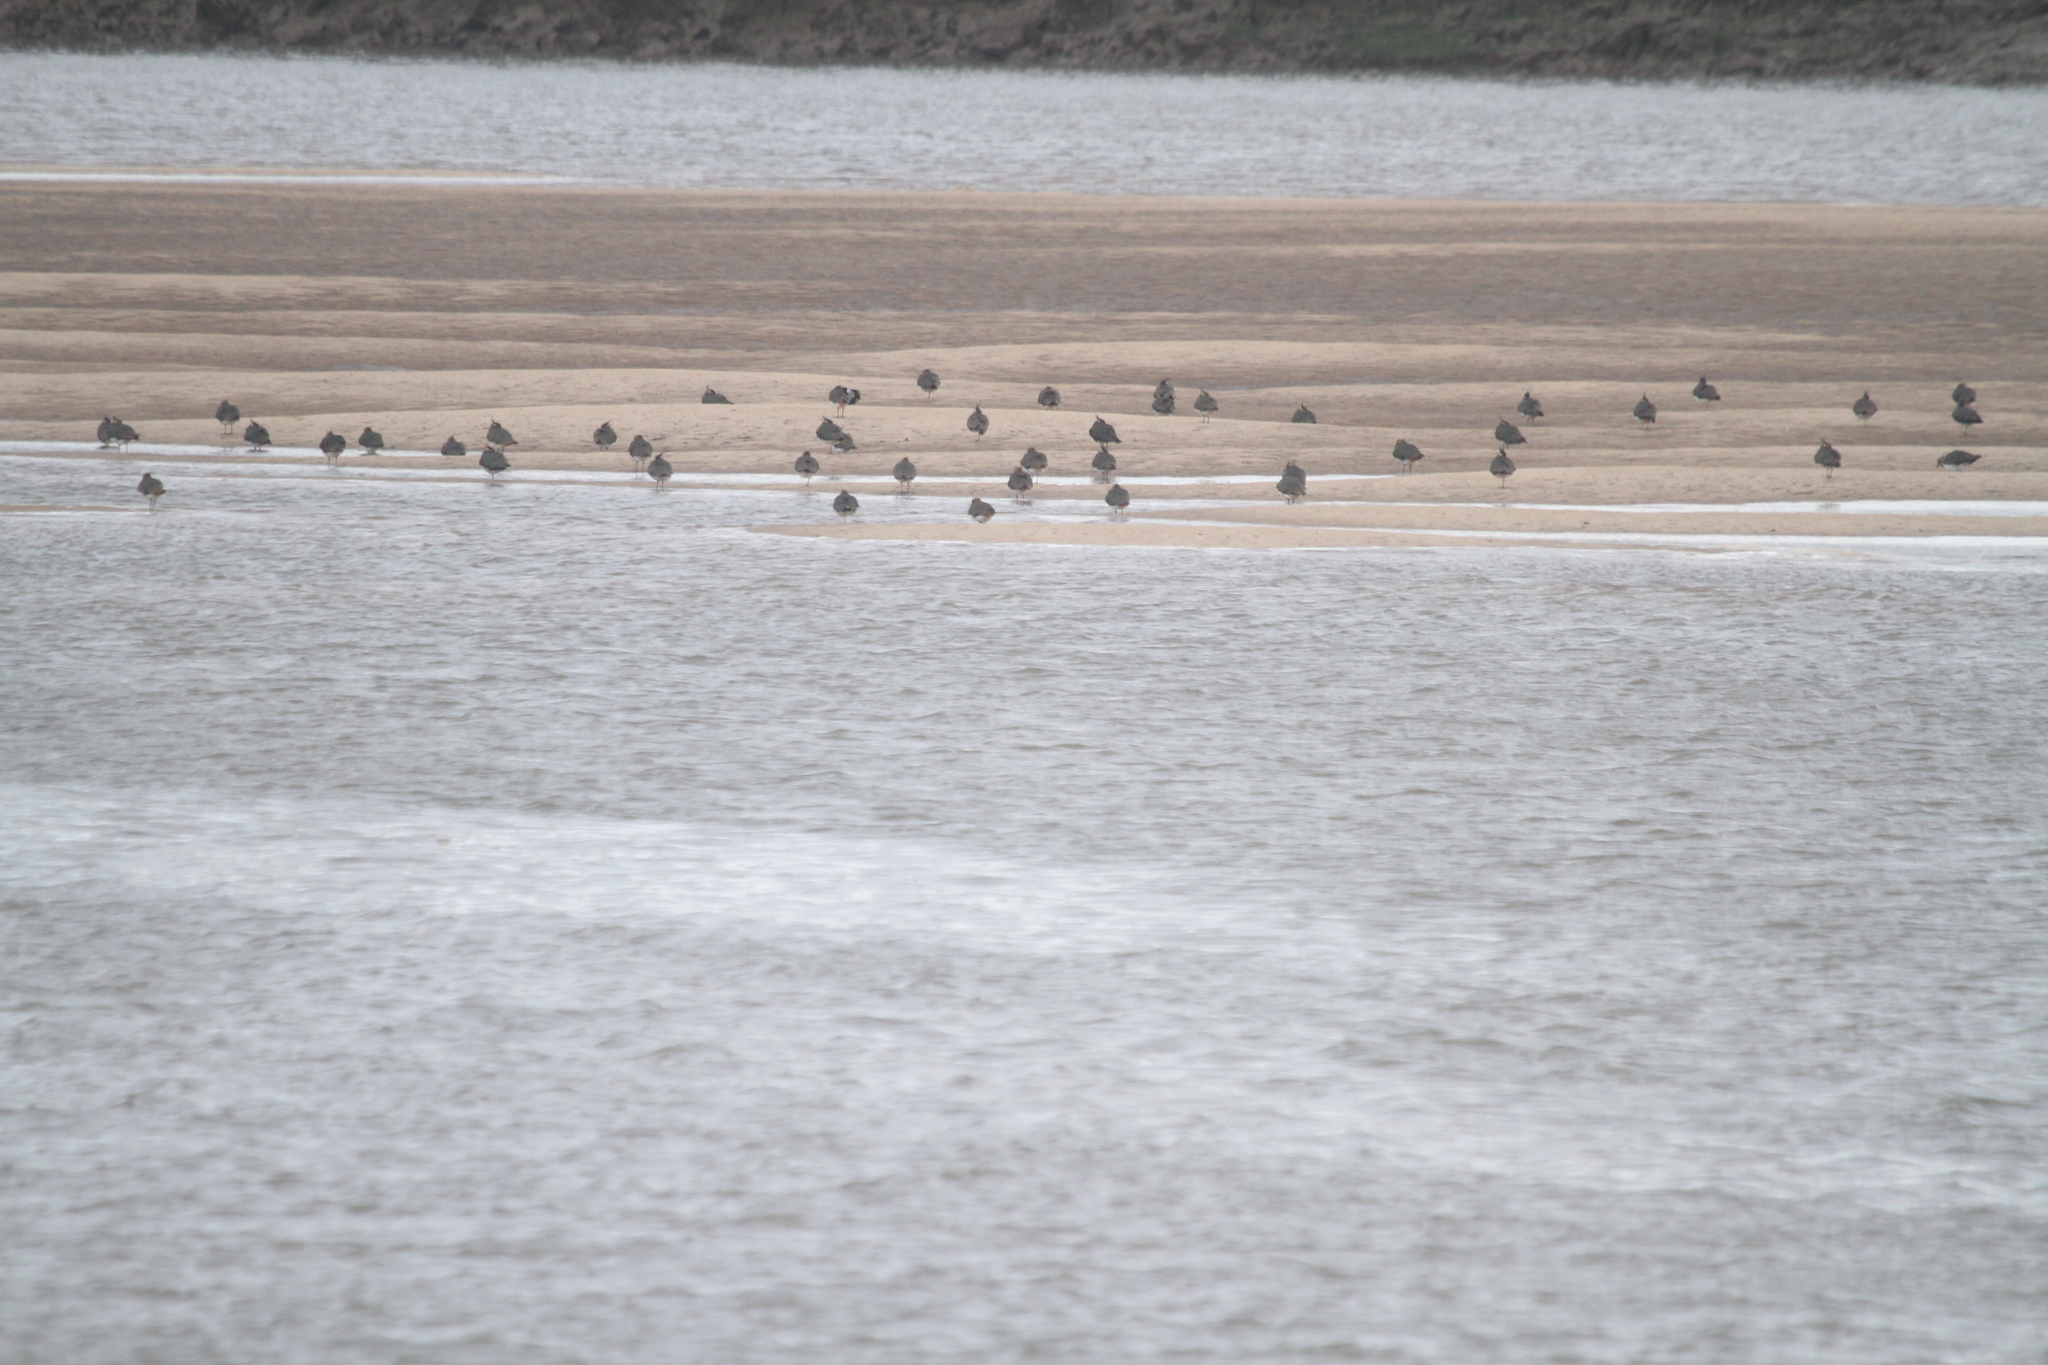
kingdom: Animalia
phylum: Chordata
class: Aves
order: Charadriiformes
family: Charadriidae
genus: Vanellus
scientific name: Vanellus vanellus
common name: Northern lapwing
